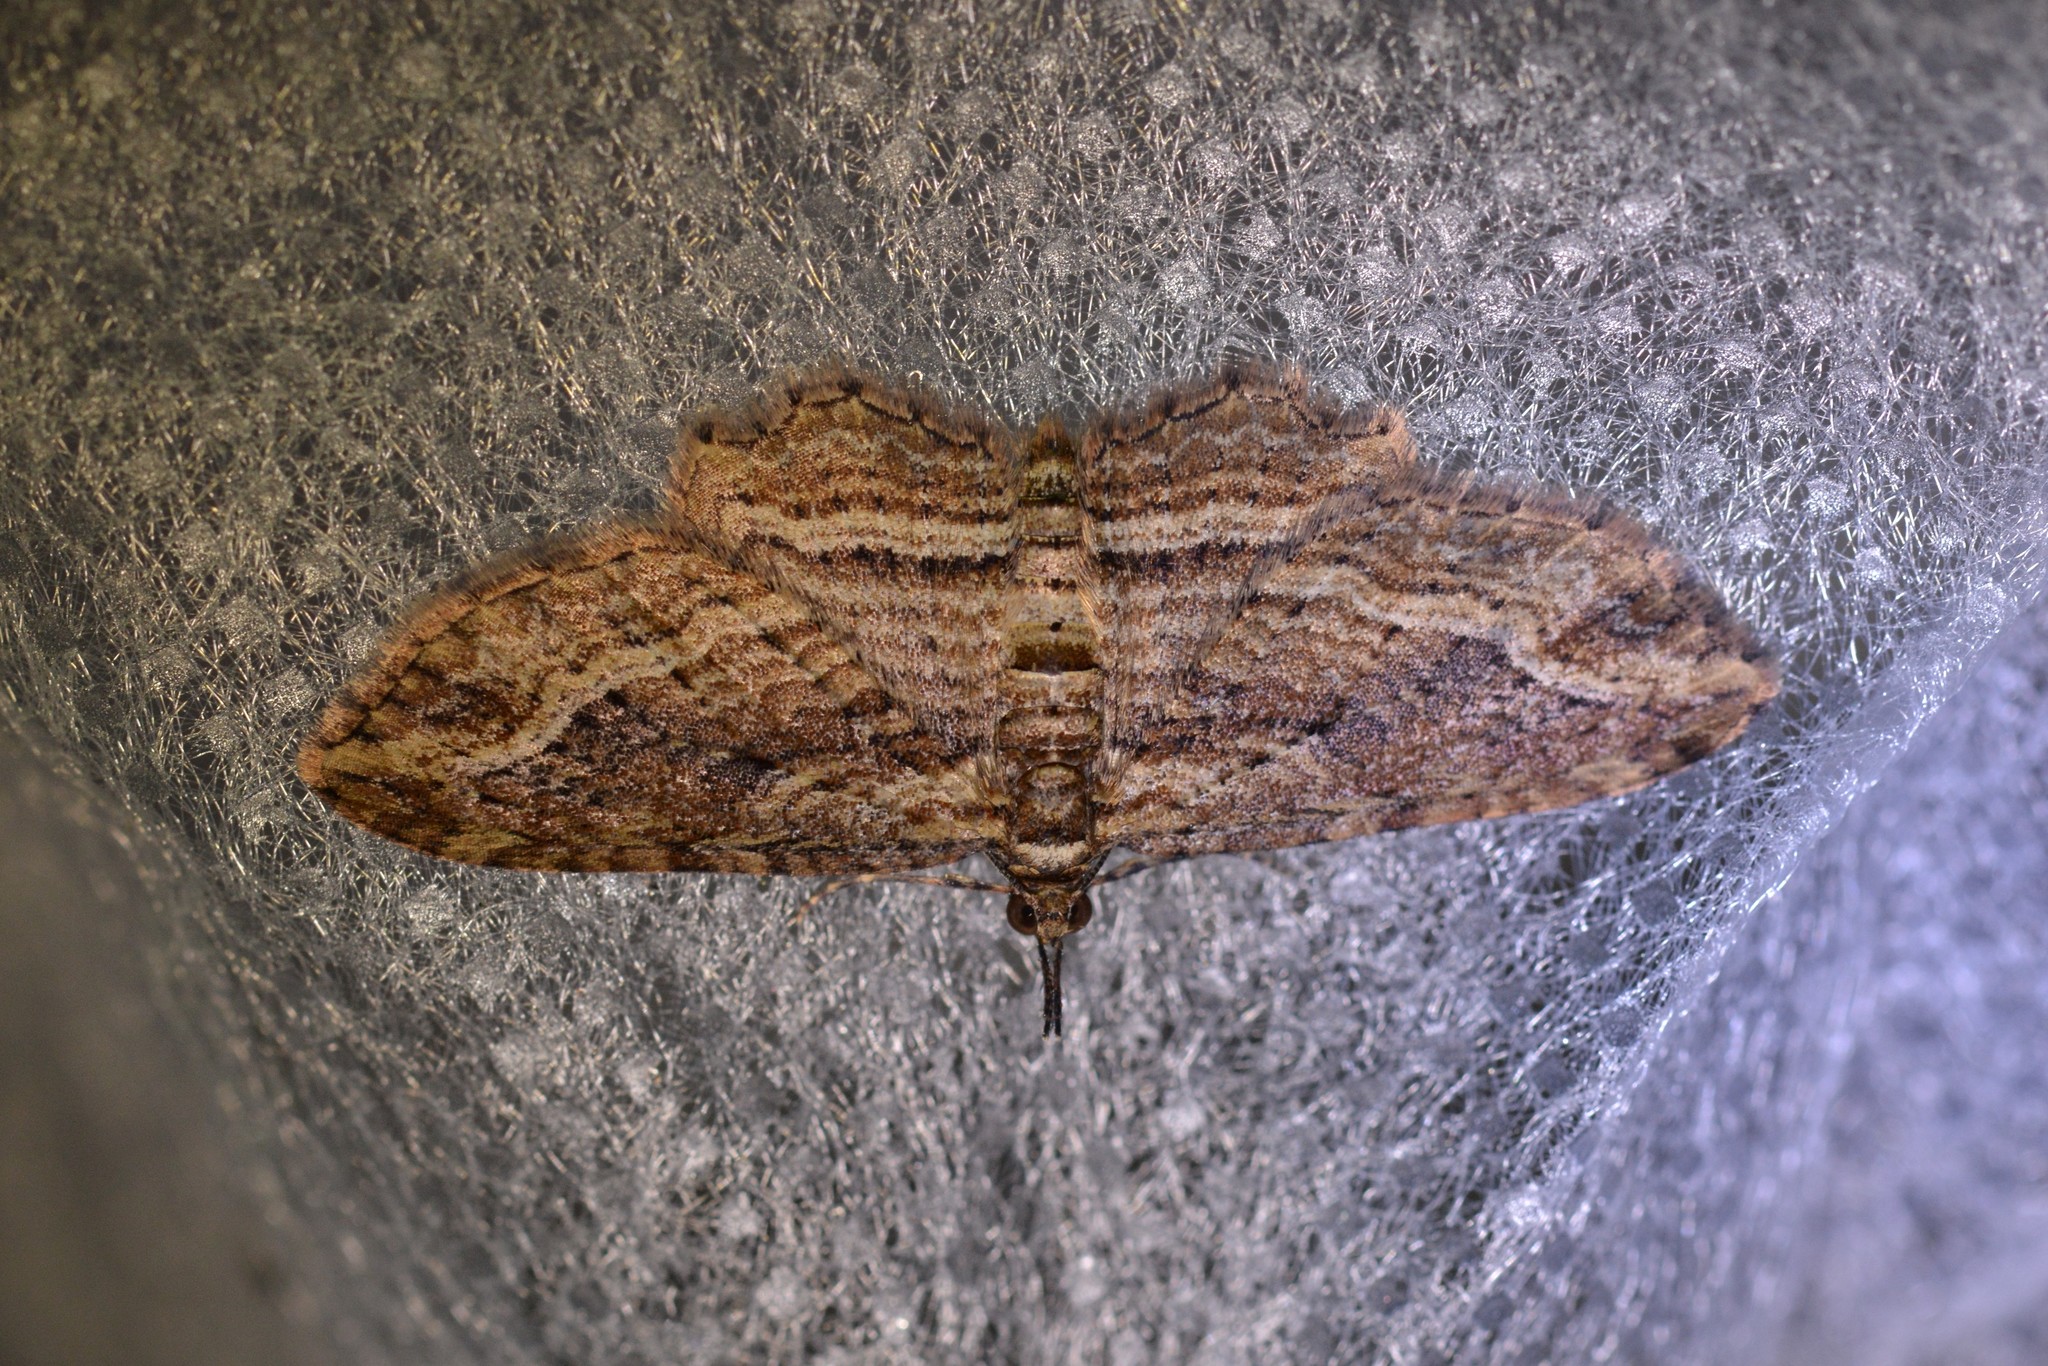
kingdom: Animalia
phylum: Arthropoda
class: Insecta
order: Lepidoptera
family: Geometridae
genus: Chloroclystis
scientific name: Chloroclystis filata
